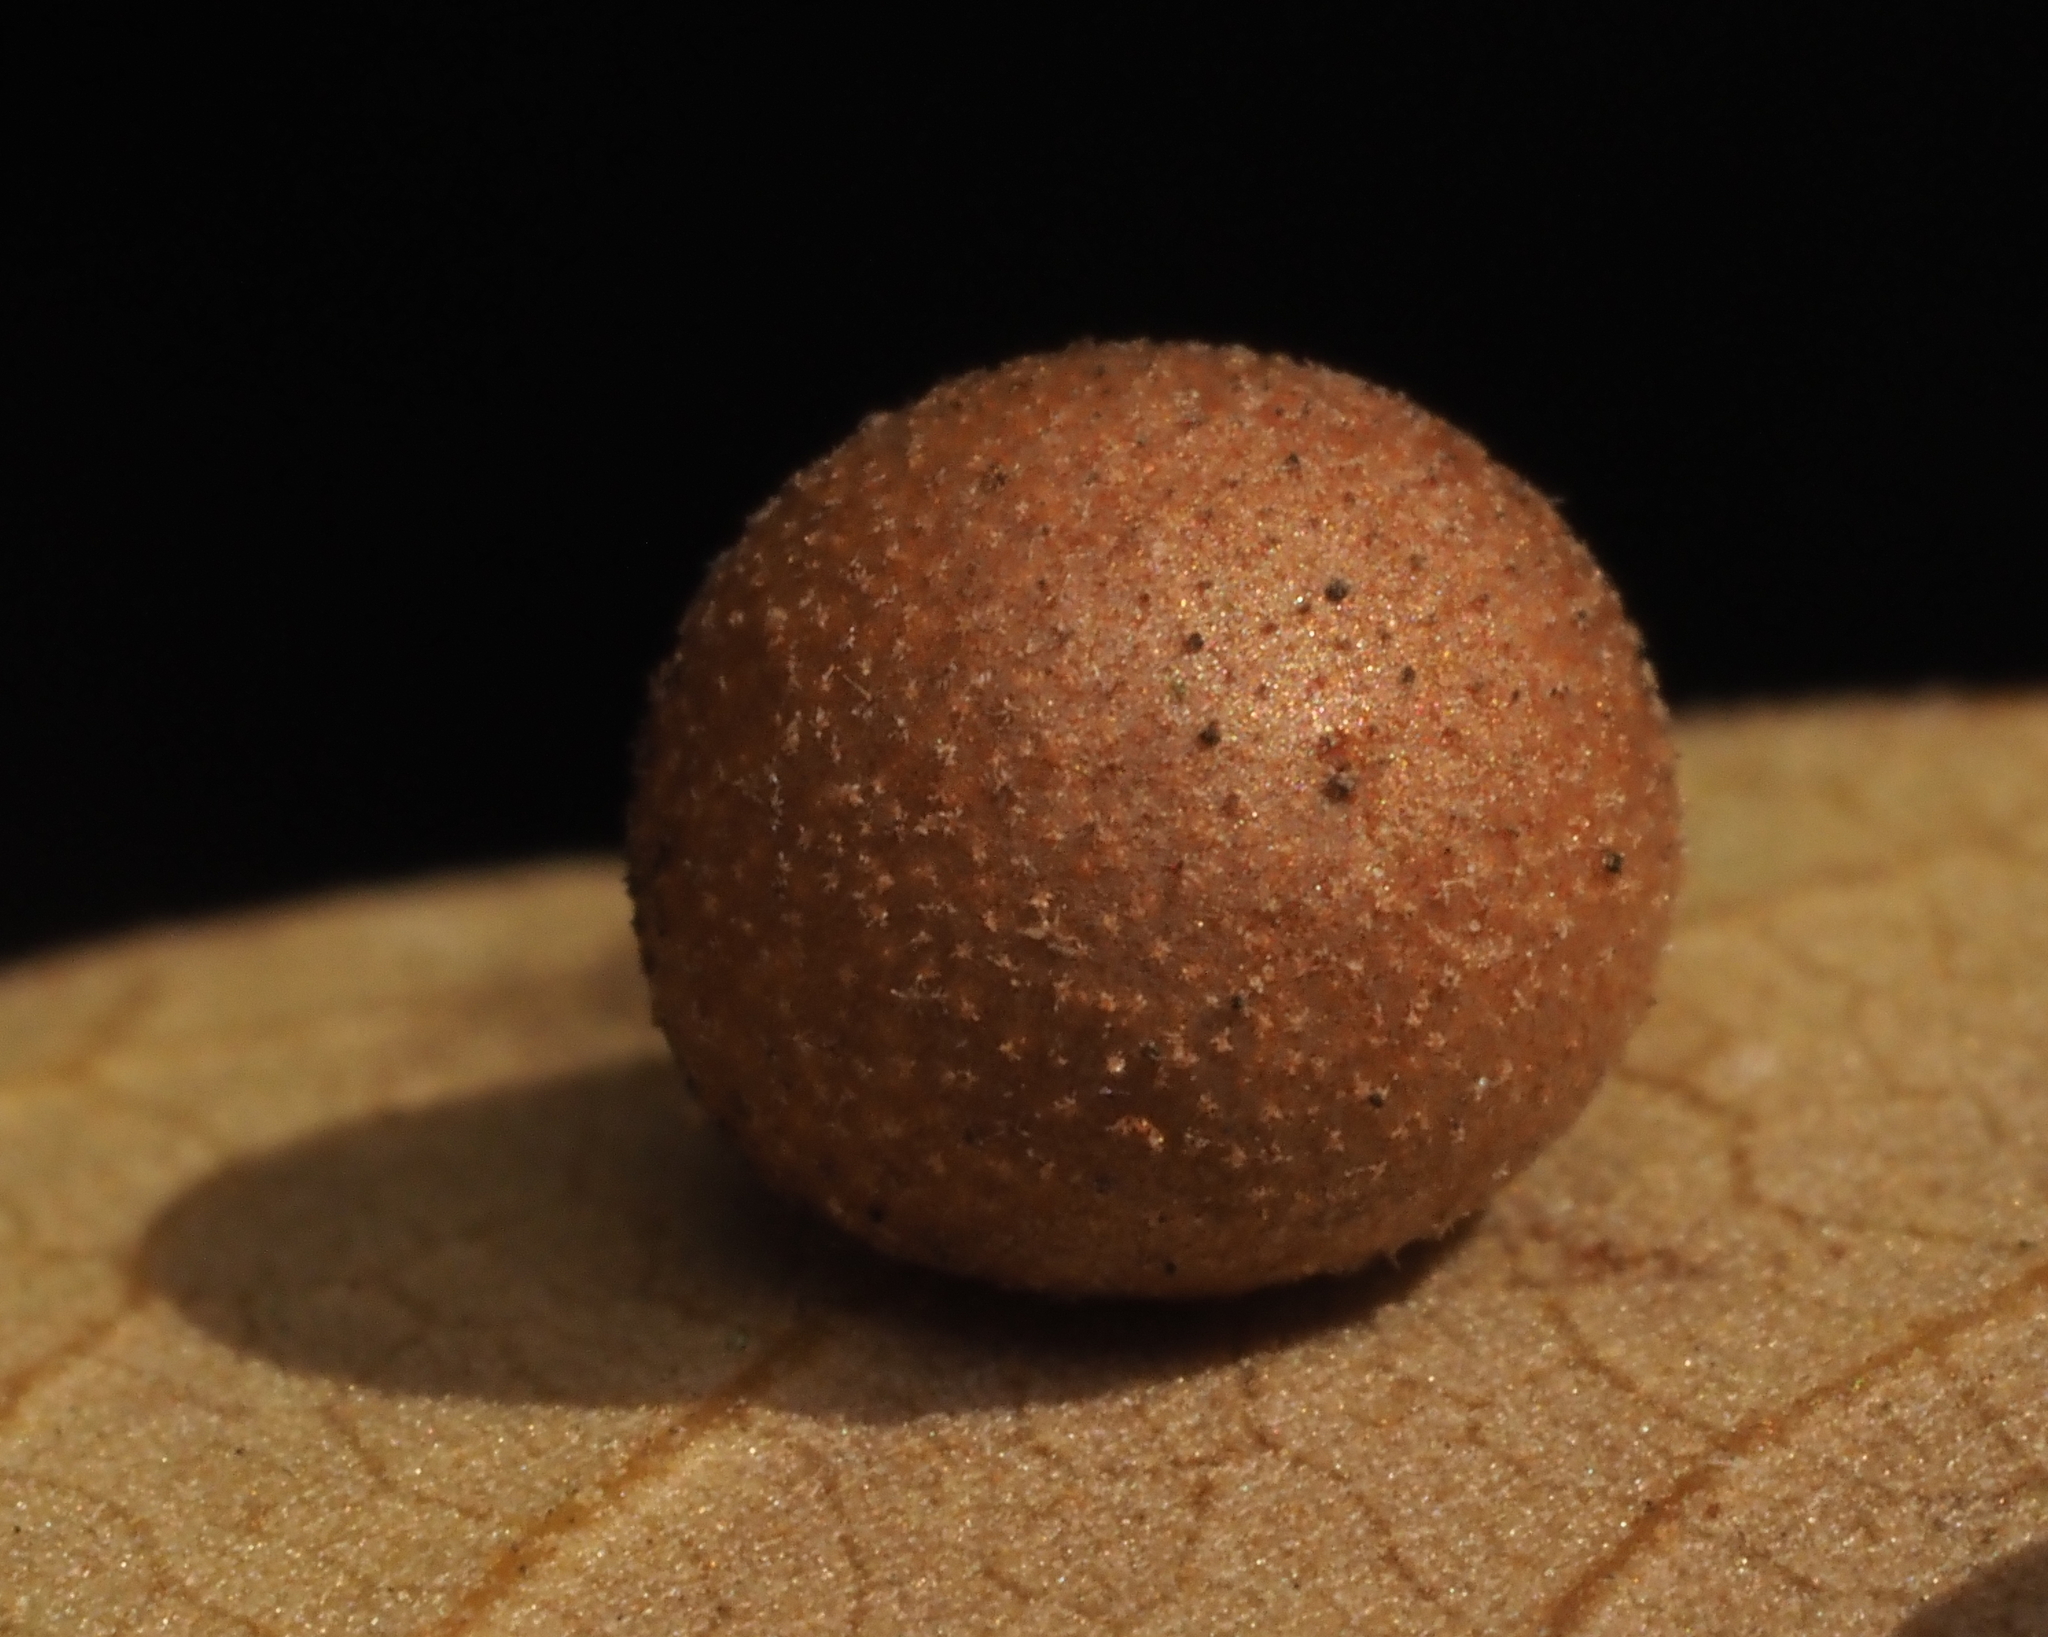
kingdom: Animalia
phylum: Arthropoda
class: Insecta
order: Hymenoptera
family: Cynipidae
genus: Belonocnema
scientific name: Belonocnema kinseyi
